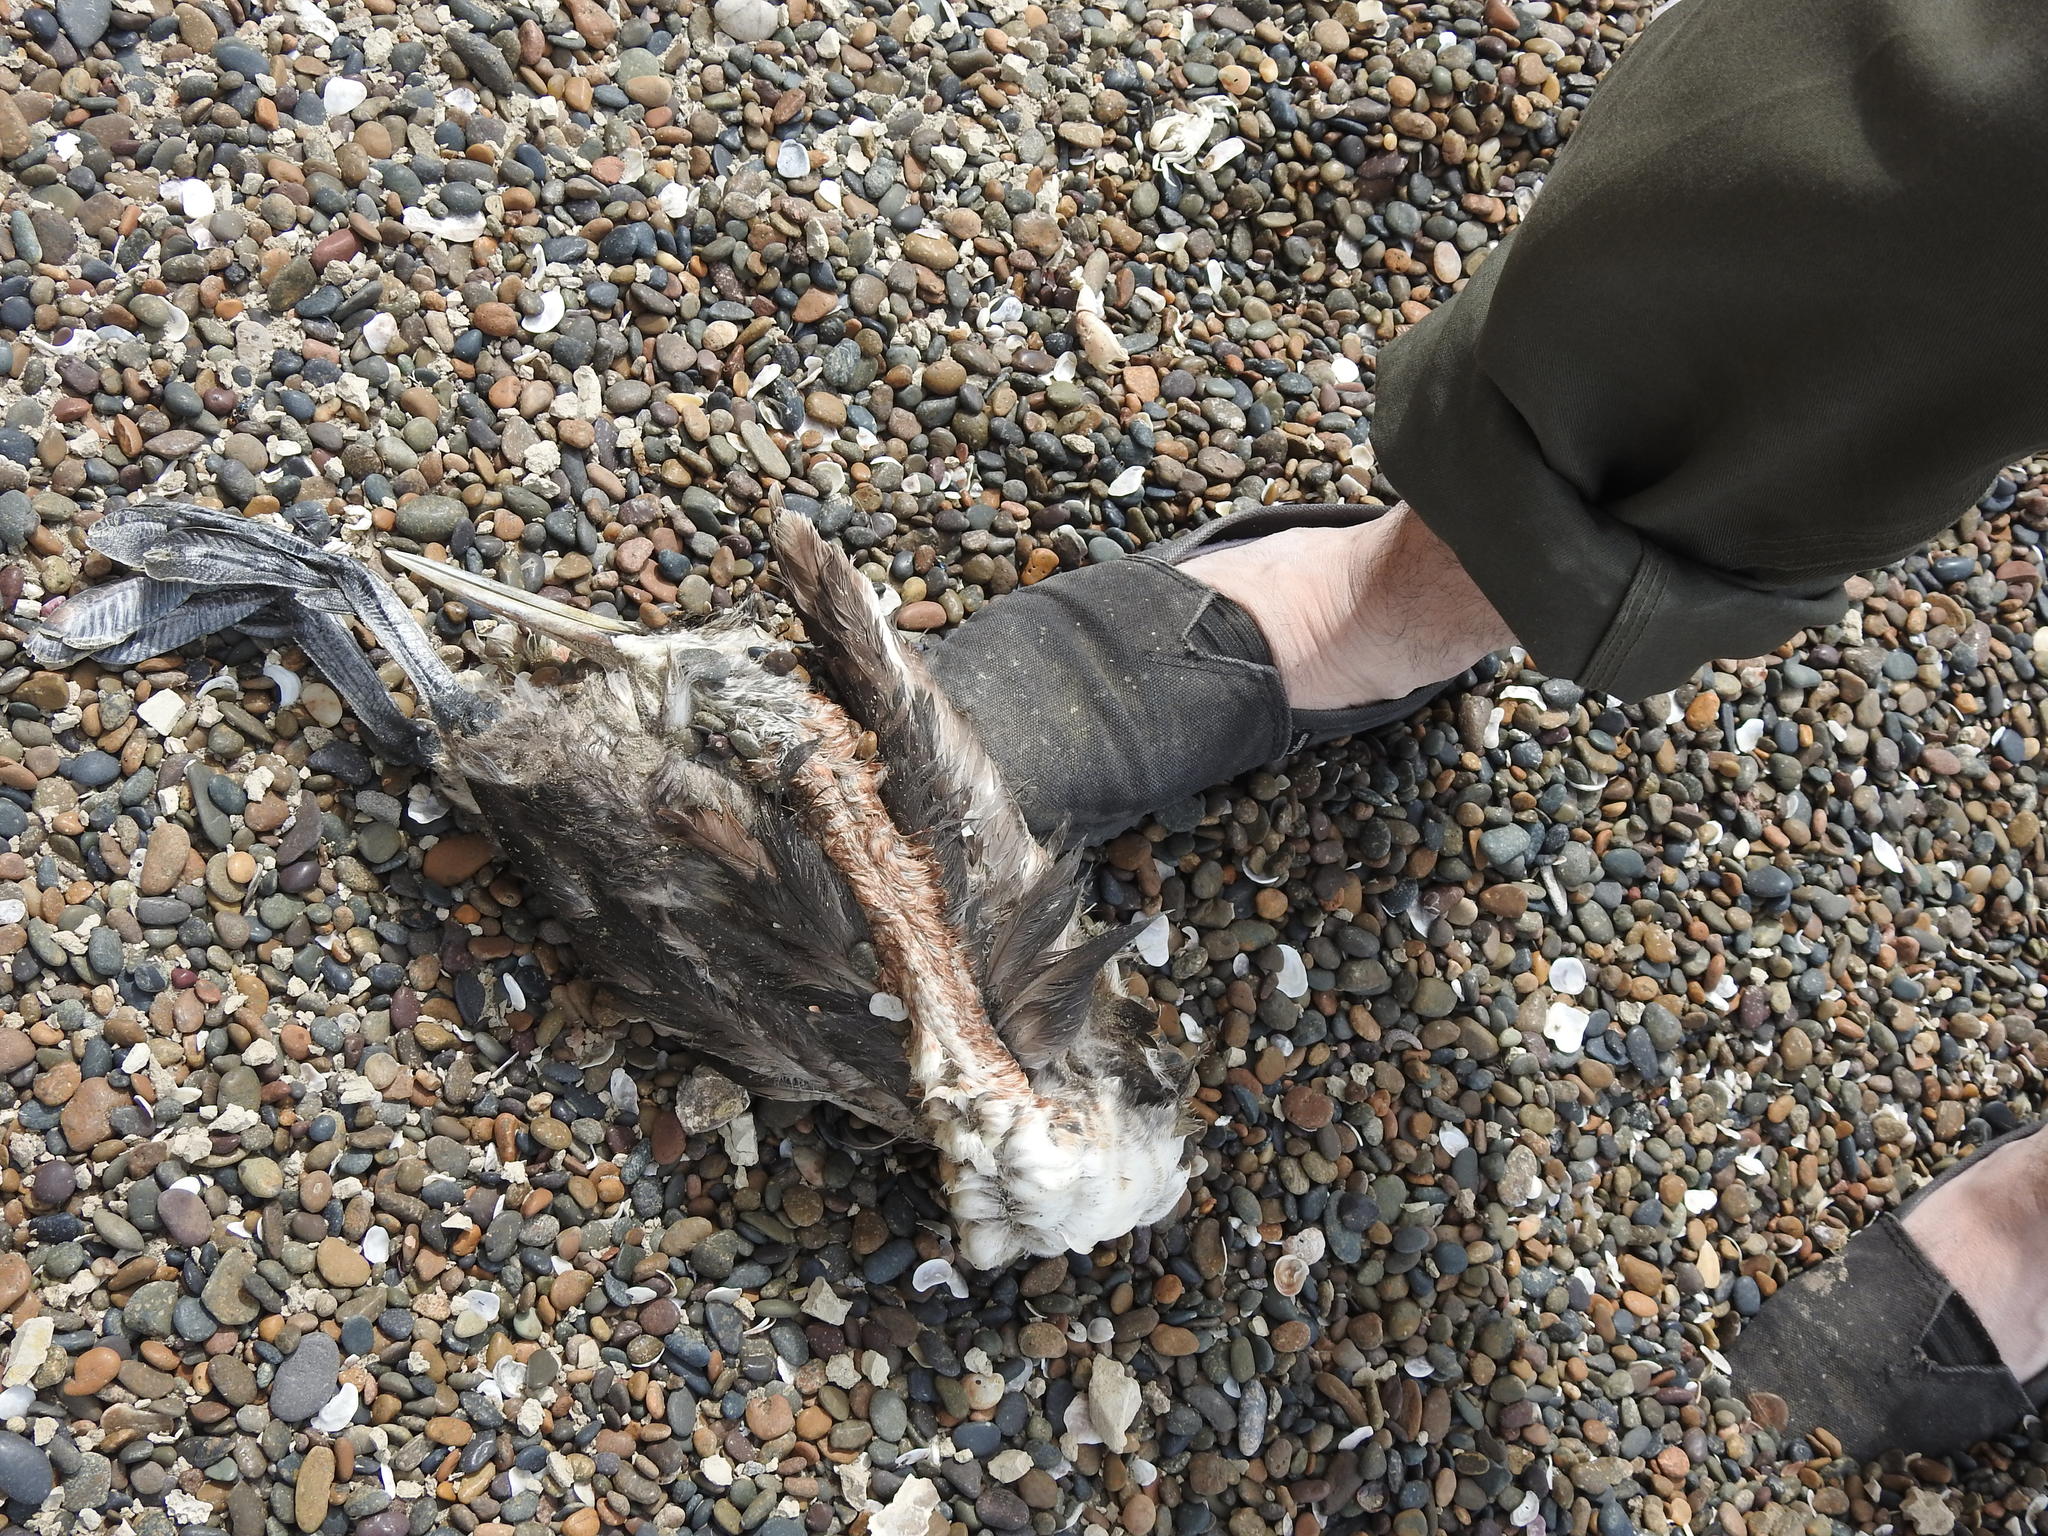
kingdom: Animalia
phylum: Chordata
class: Aves
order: Podicipediformes
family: Podicipedidae
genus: Podiceps
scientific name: Podiceps major
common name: Great grebe
